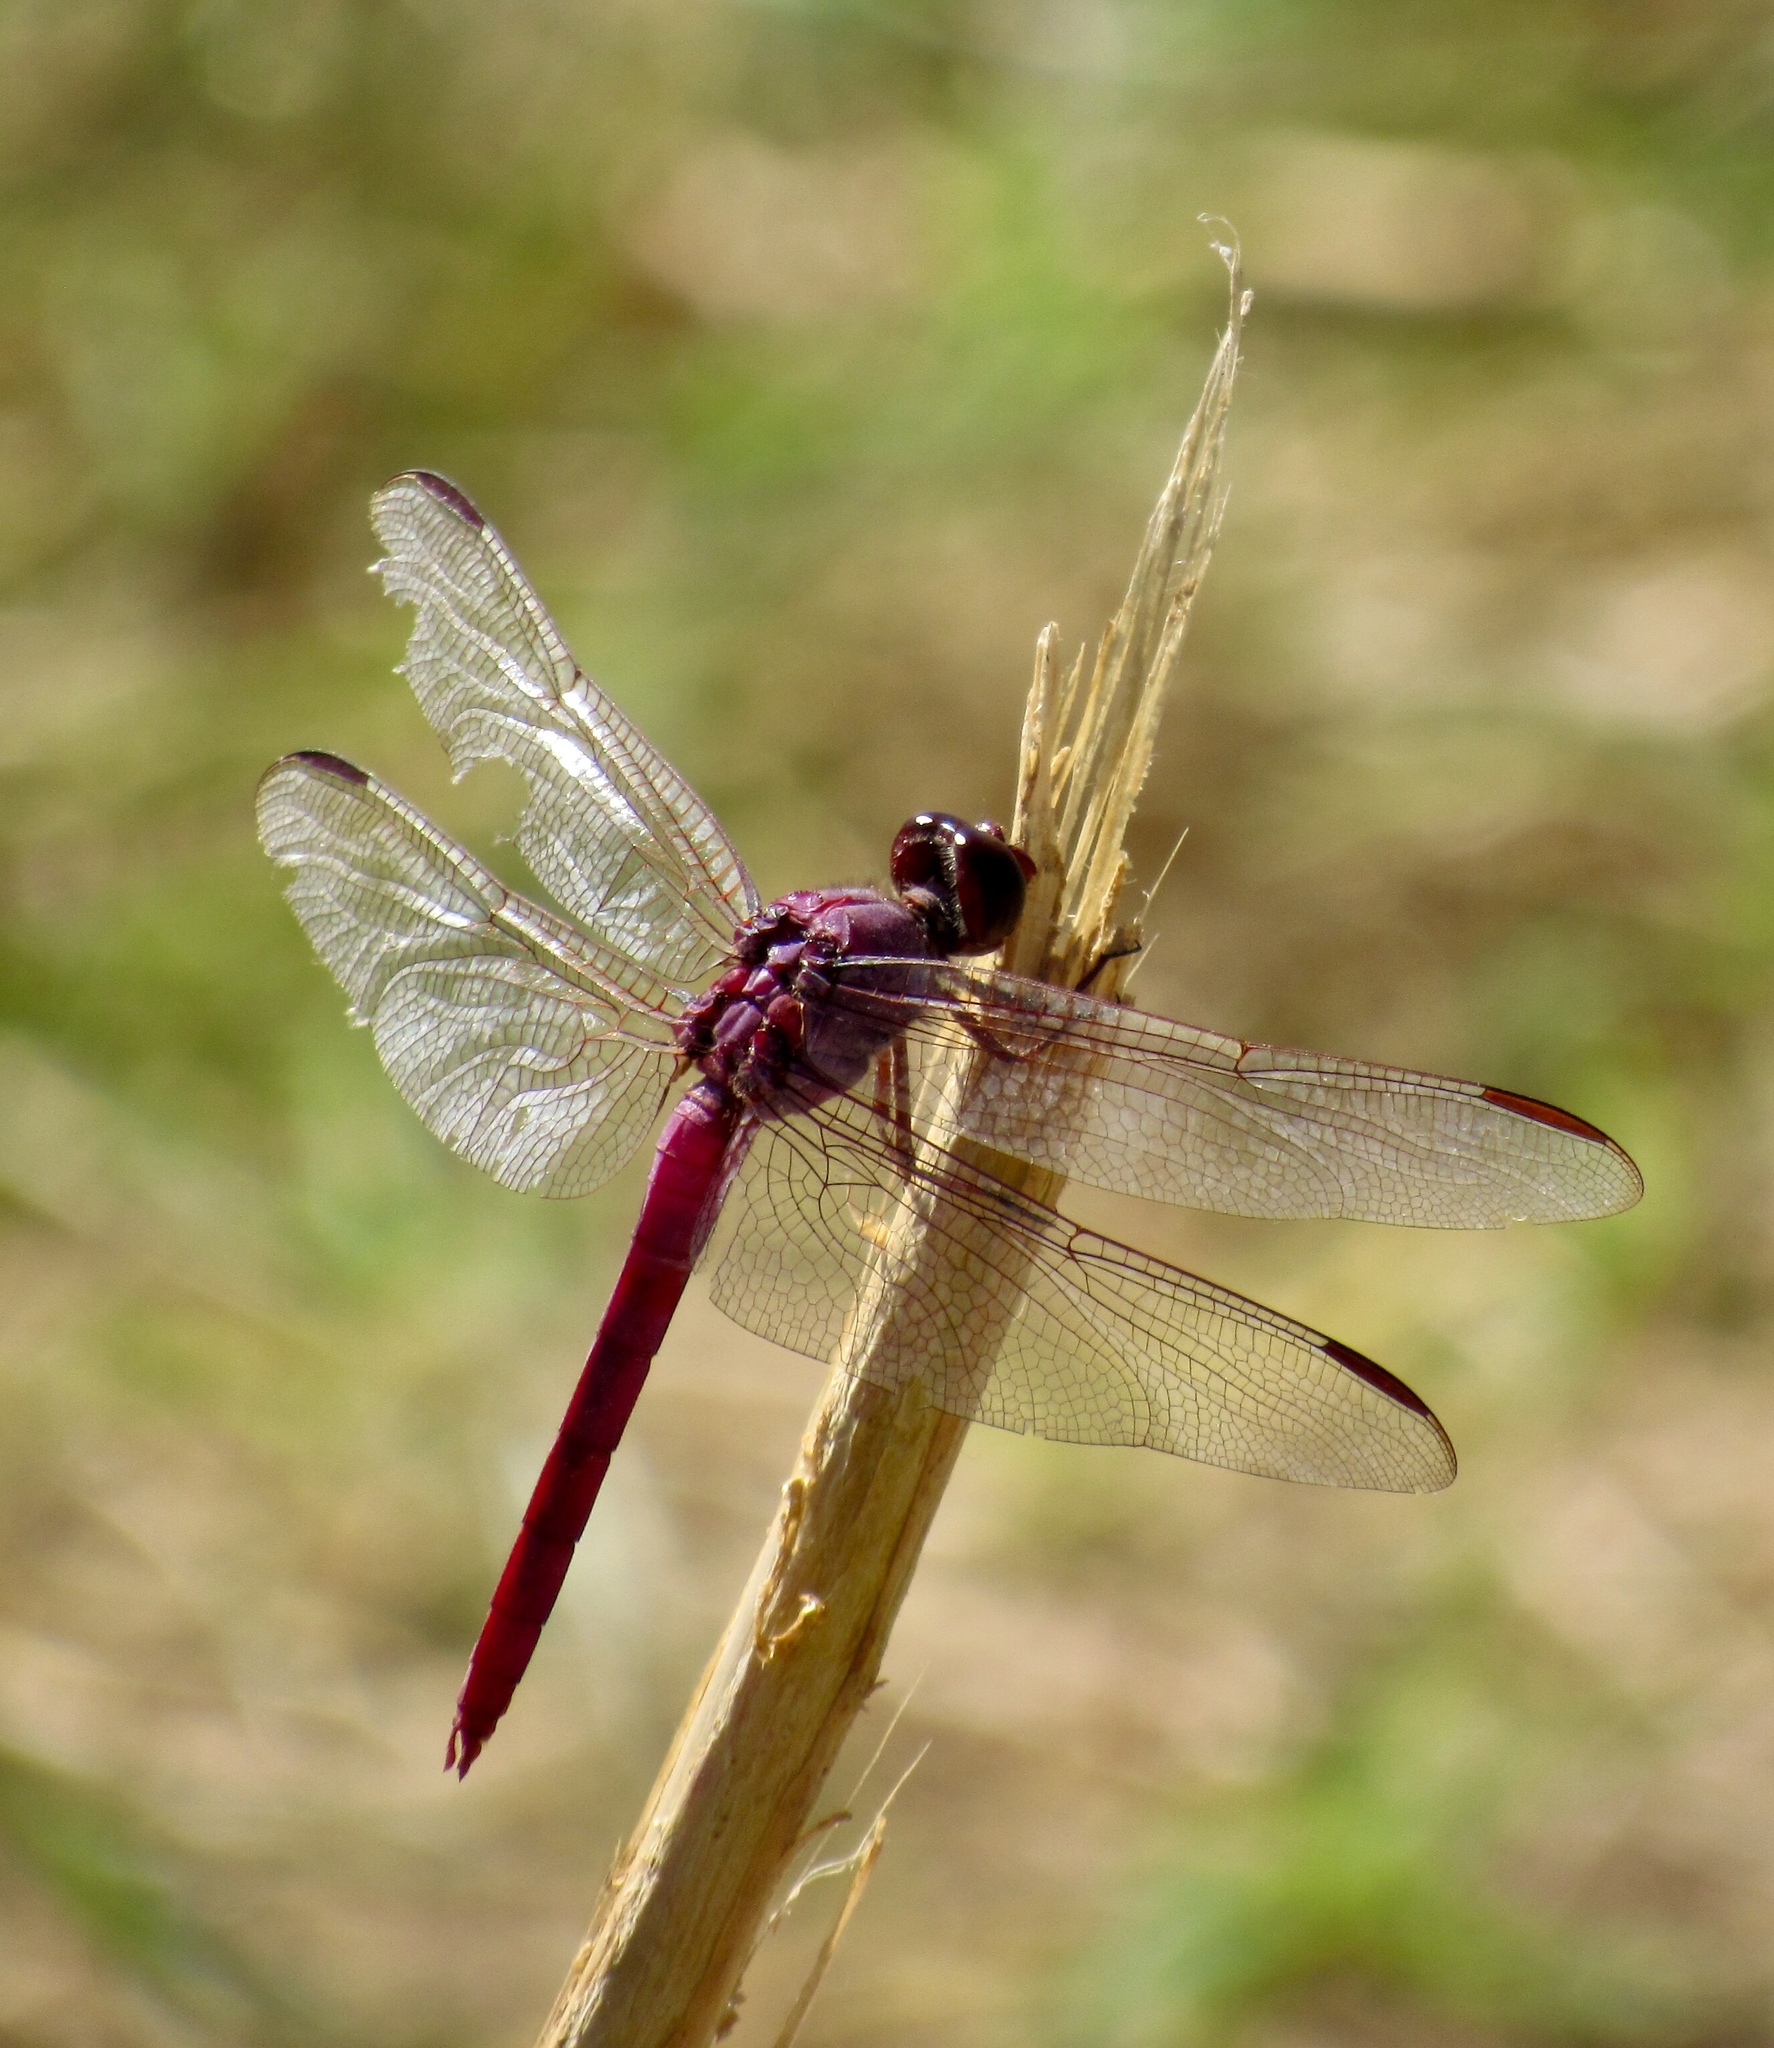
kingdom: Animalia
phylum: Arthropoda
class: Insecta
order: Odonata
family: Libellulidae
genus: Orthemis
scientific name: Orthemis ferruginea
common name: Roseate skimmer
